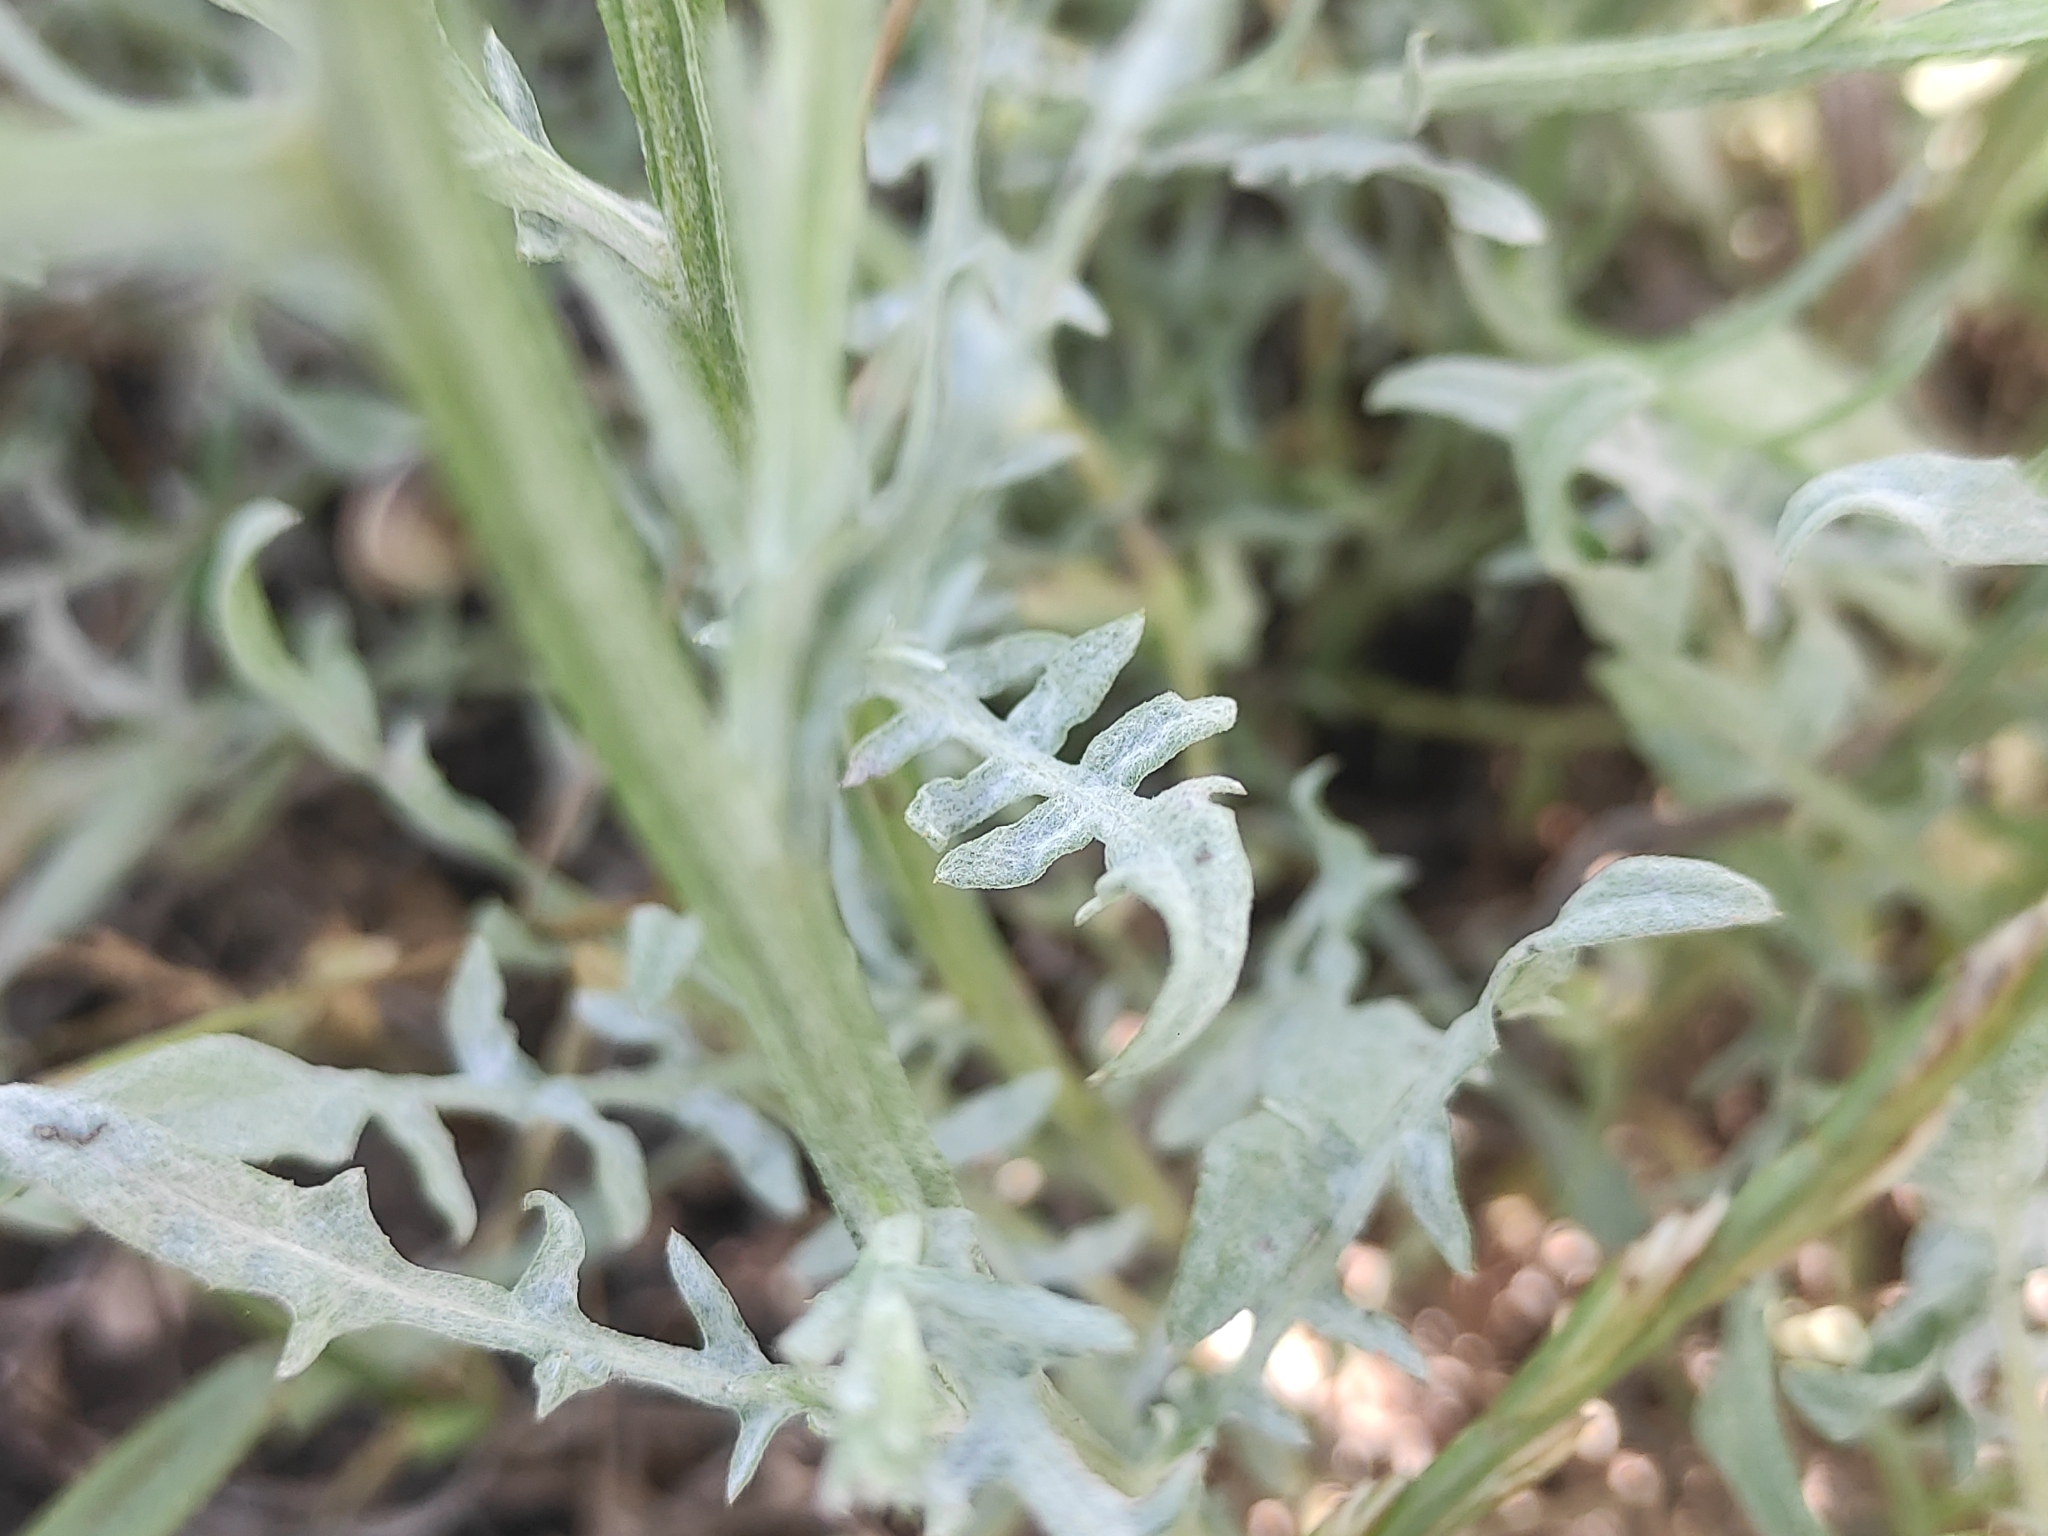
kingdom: Plantae
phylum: Tracheophyta
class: Magnoliopsida
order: Asterales
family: Asteraceae
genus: Centaurea
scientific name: Centaurea solstitialis
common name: Yellow star-thistle
